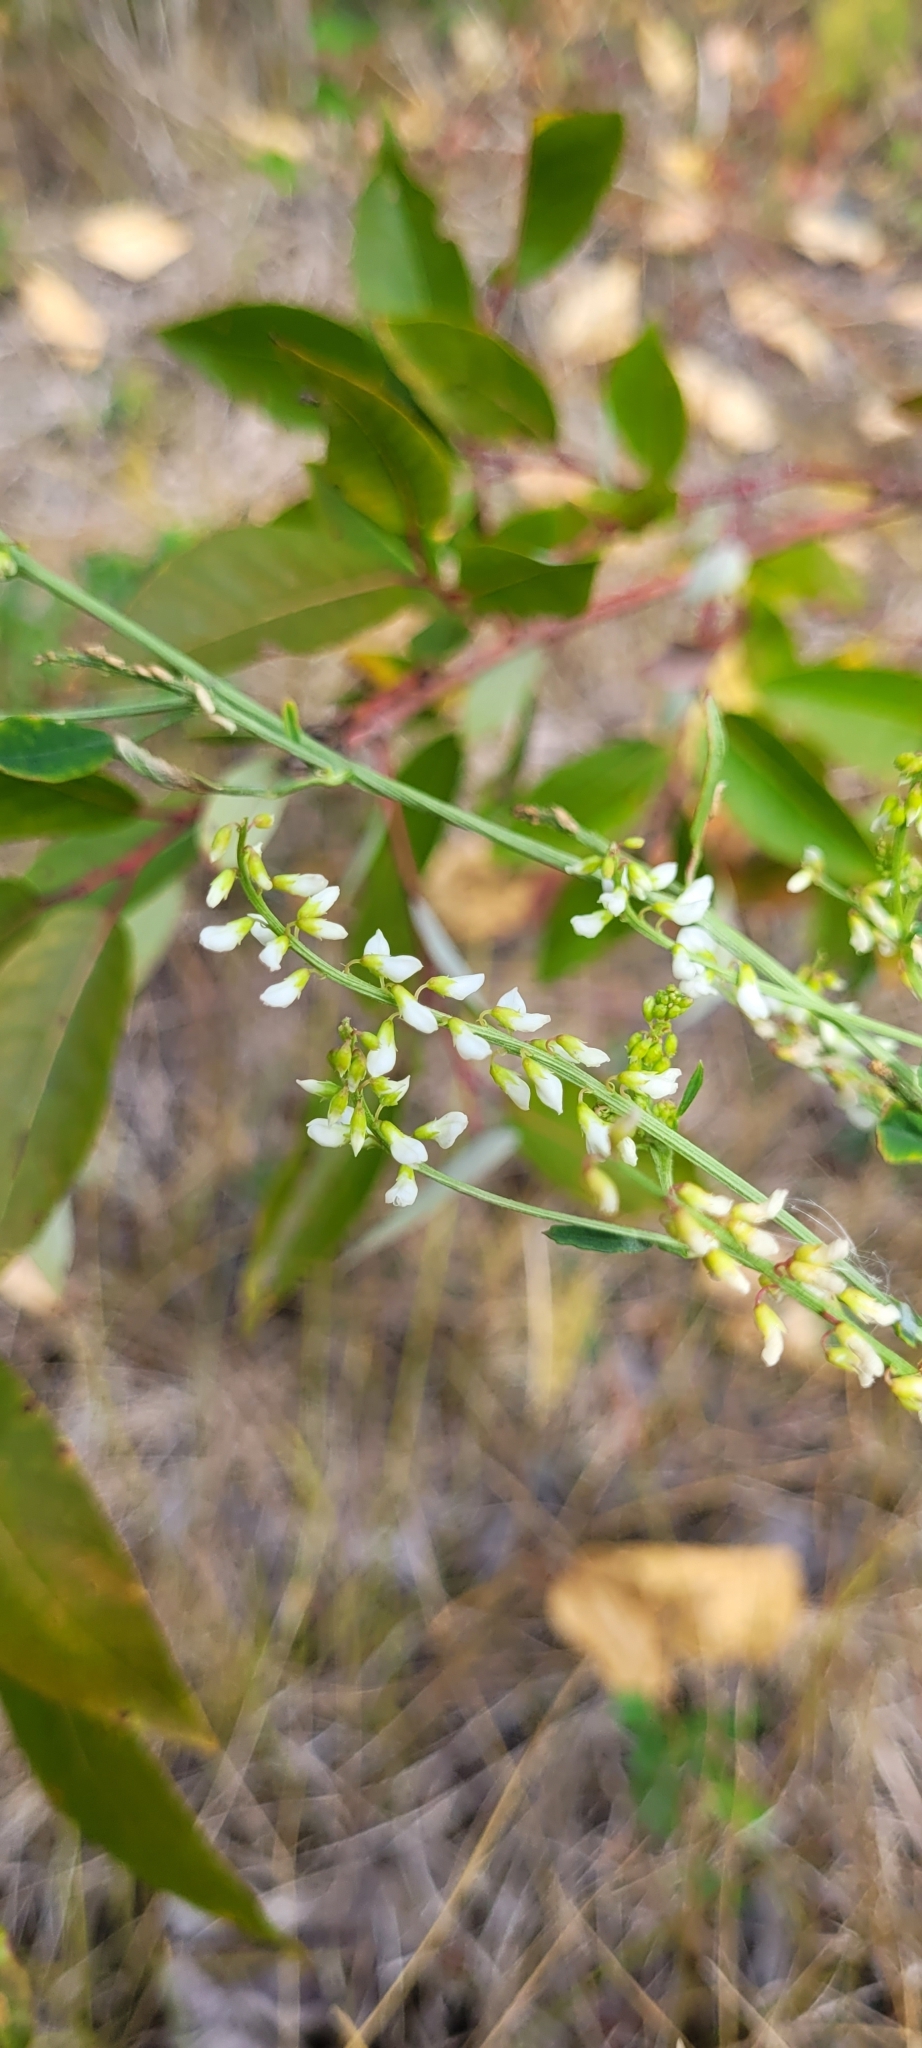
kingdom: Plantae
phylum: Tracheophyta
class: Magnoliopsida
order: Fabales
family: Fabaceae
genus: Melilotus
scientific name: Melilotus albus
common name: White melilot
